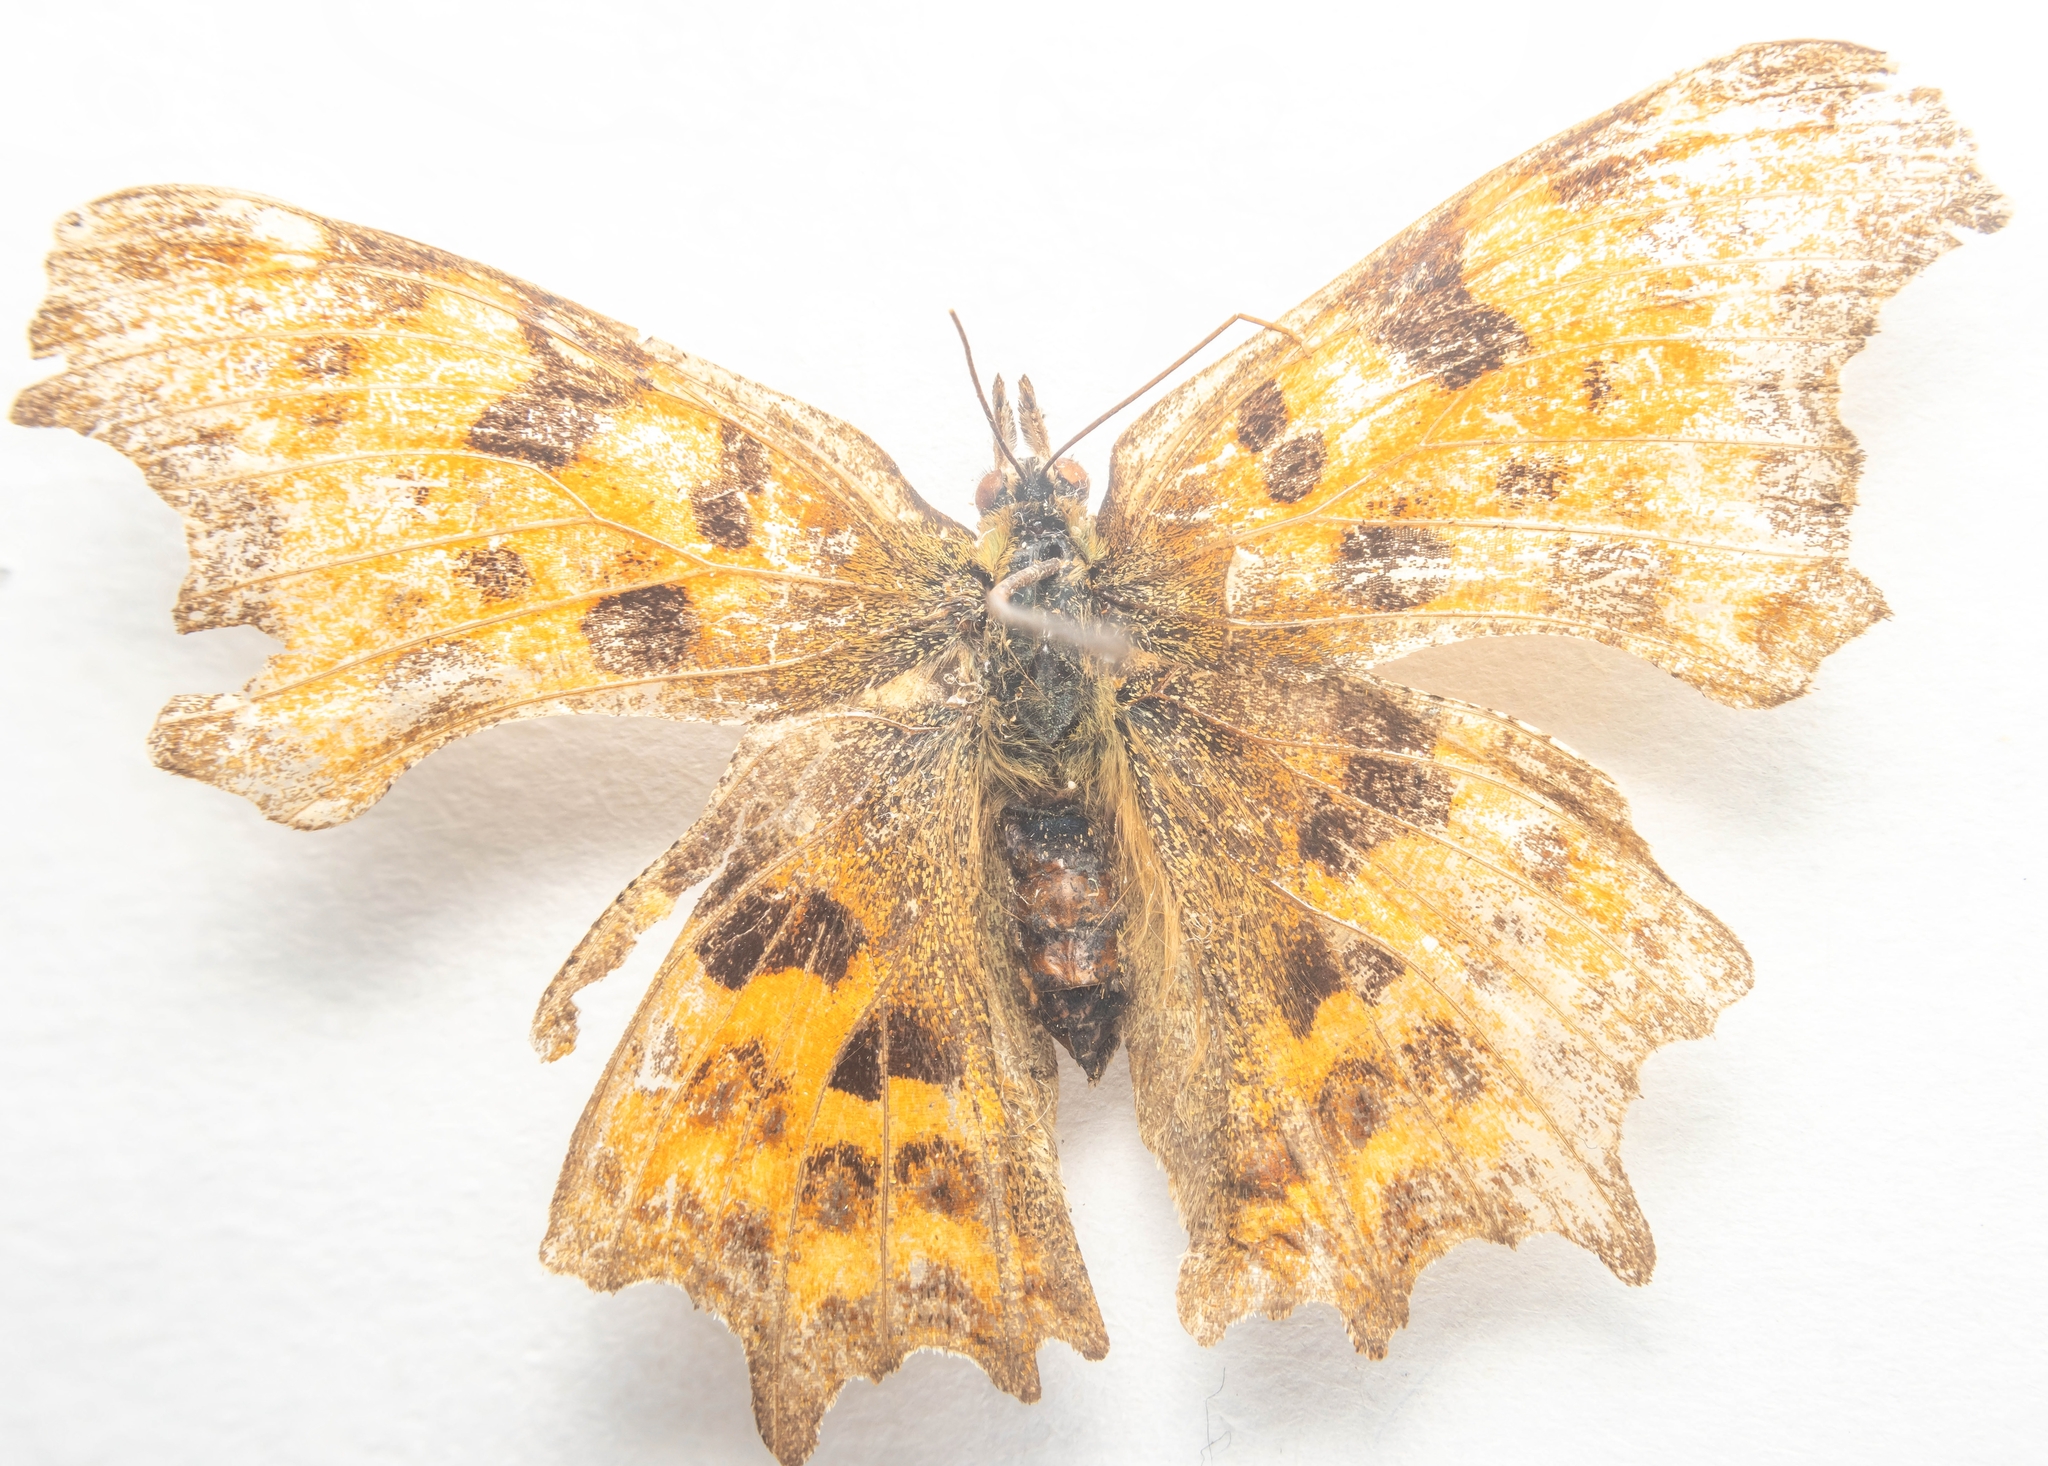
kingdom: Animalia
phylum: Arthropoda
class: Insecta
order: Lepidoptera
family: Nymphalidae
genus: Polygonia
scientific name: Polygonia c-album
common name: Comma
